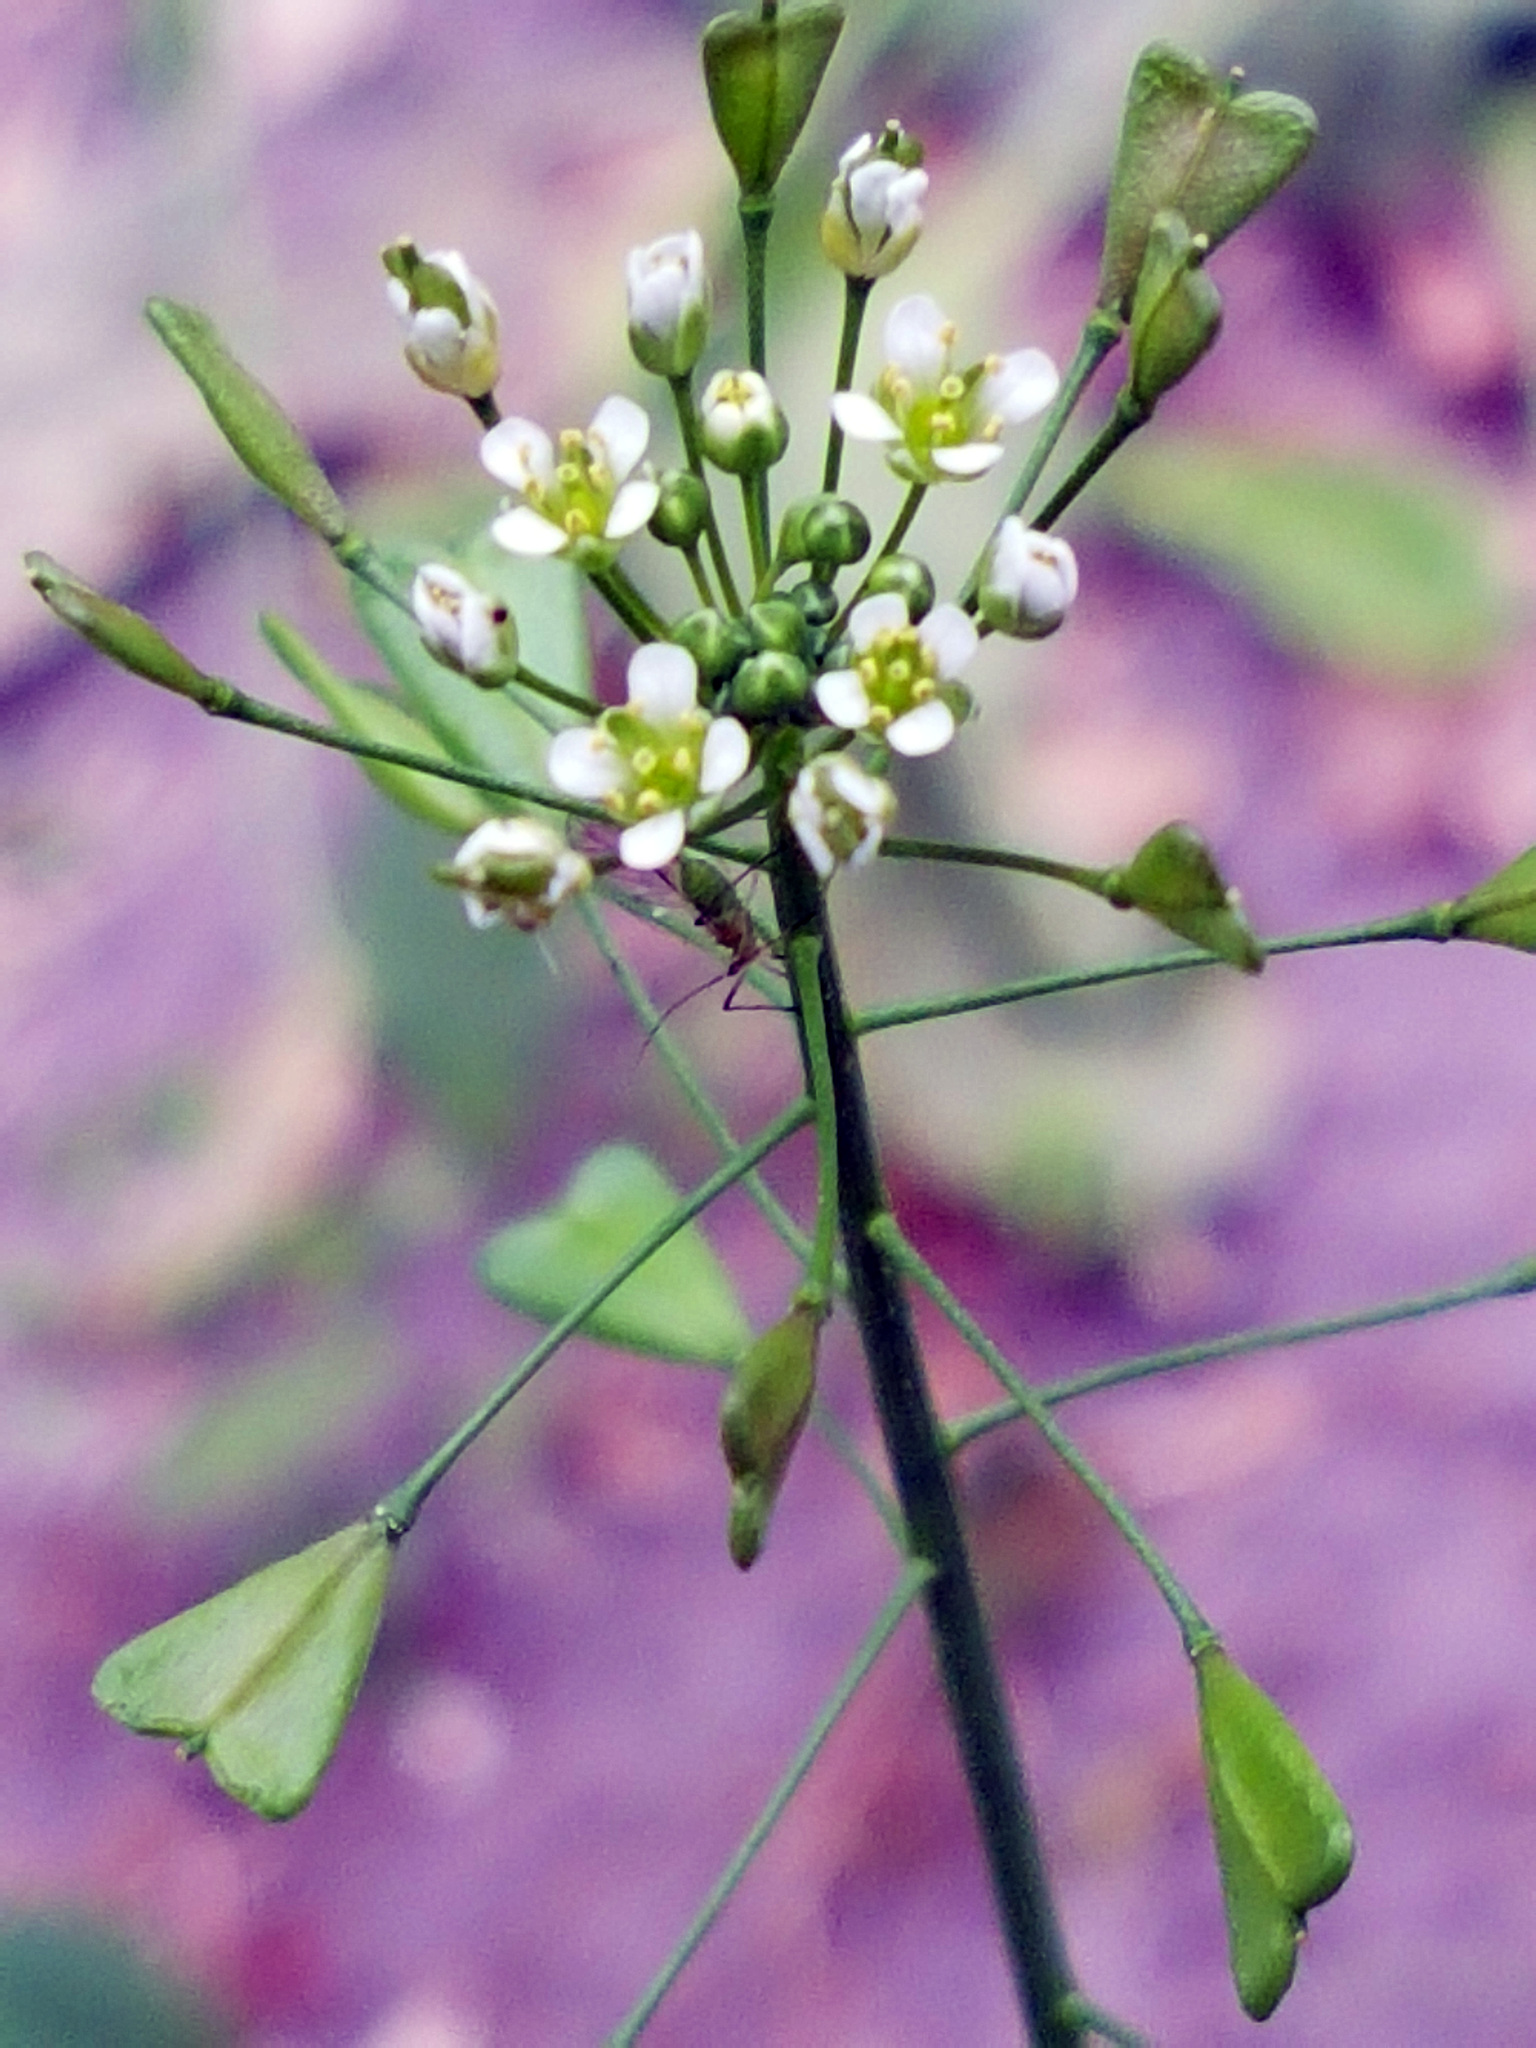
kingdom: Plantae
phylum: Tracheophyta
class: Magnoliopsida
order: Brassicales
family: Brassicaceae
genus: Capsella
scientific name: Capsella bursa-pastoris
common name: Shepherd's purse
